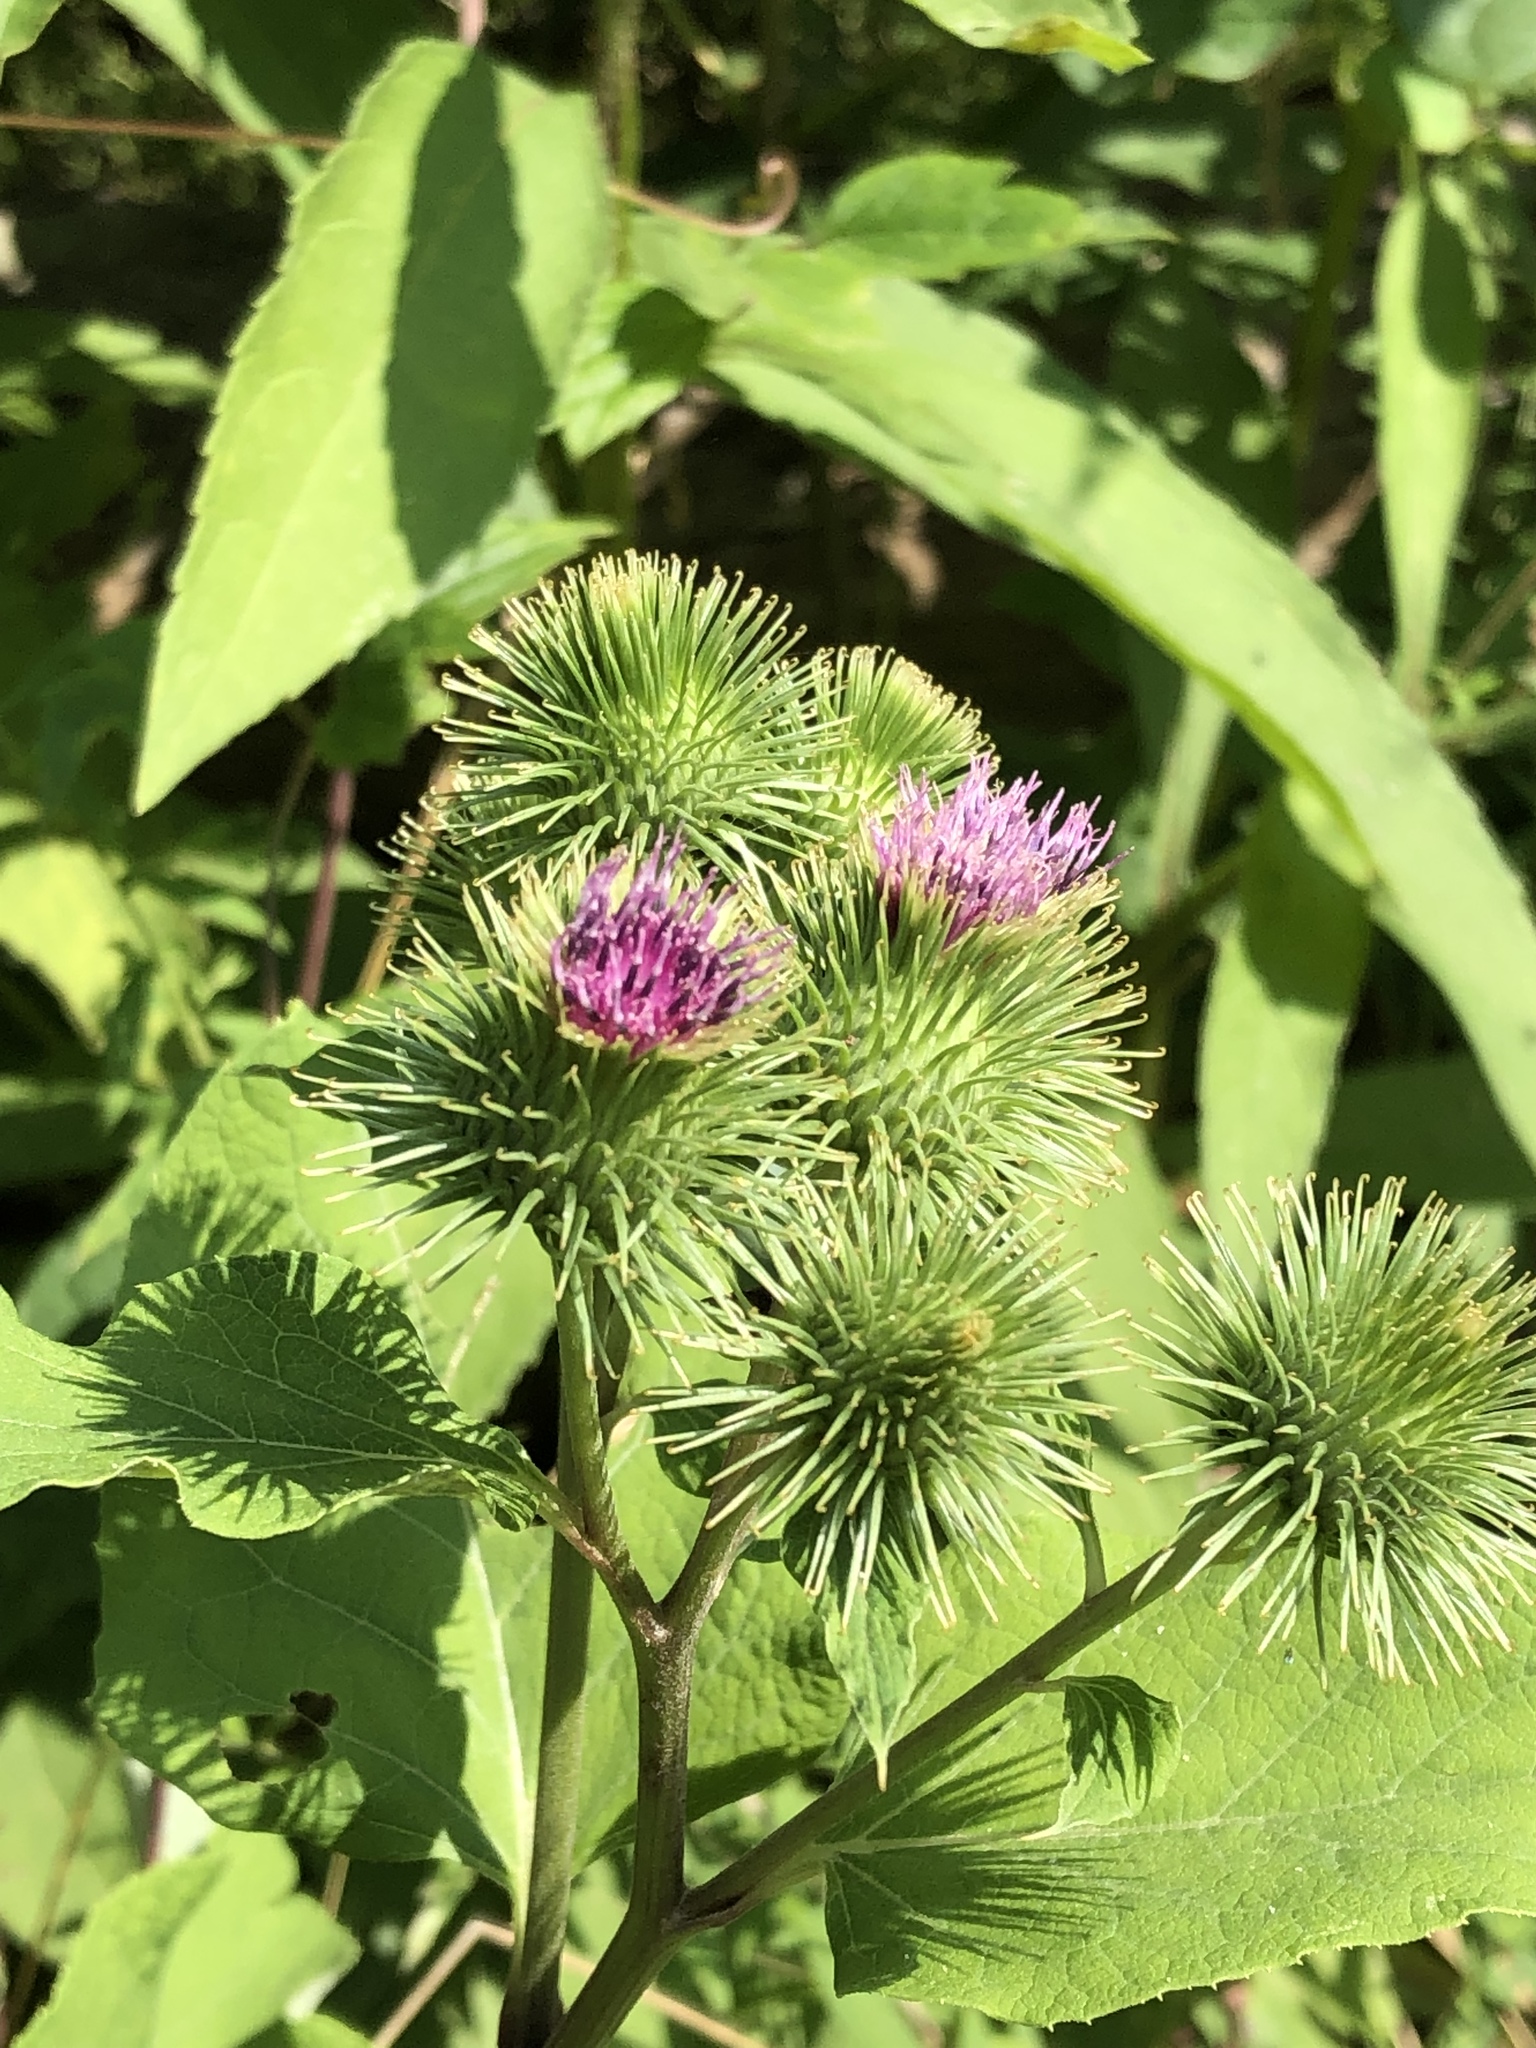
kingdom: Plantae
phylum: Tracheophyta
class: Magnoliopsida
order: Asterales
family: Asteraceae
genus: Arctium
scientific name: Arctium lappa
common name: Greater burdock
